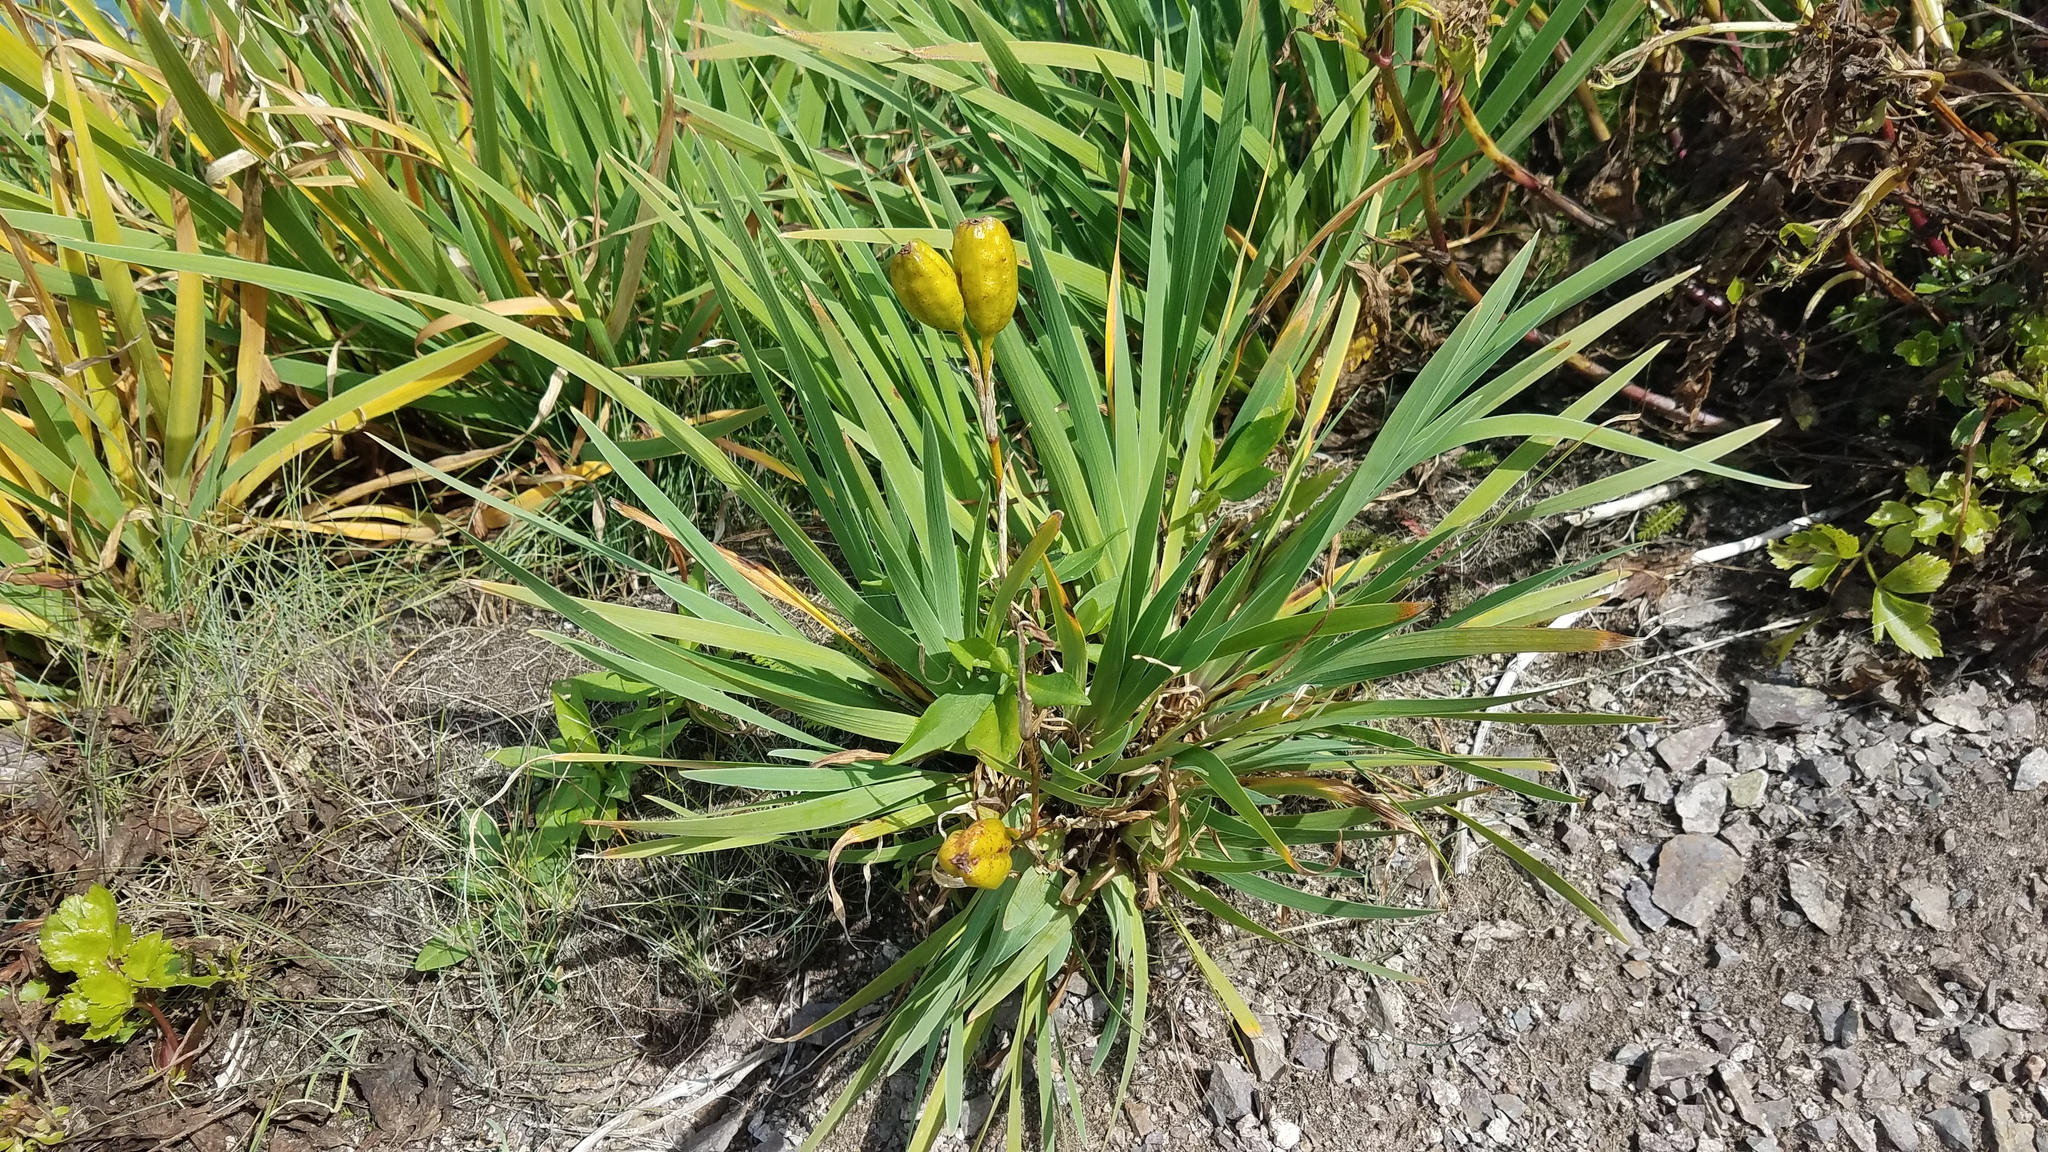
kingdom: Plantae
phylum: Tracheophyta
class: Liliopsida
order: Asparagales
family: Iridaceae
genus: Iris
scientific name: Iris hookeri
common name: Canada beach-head iris
